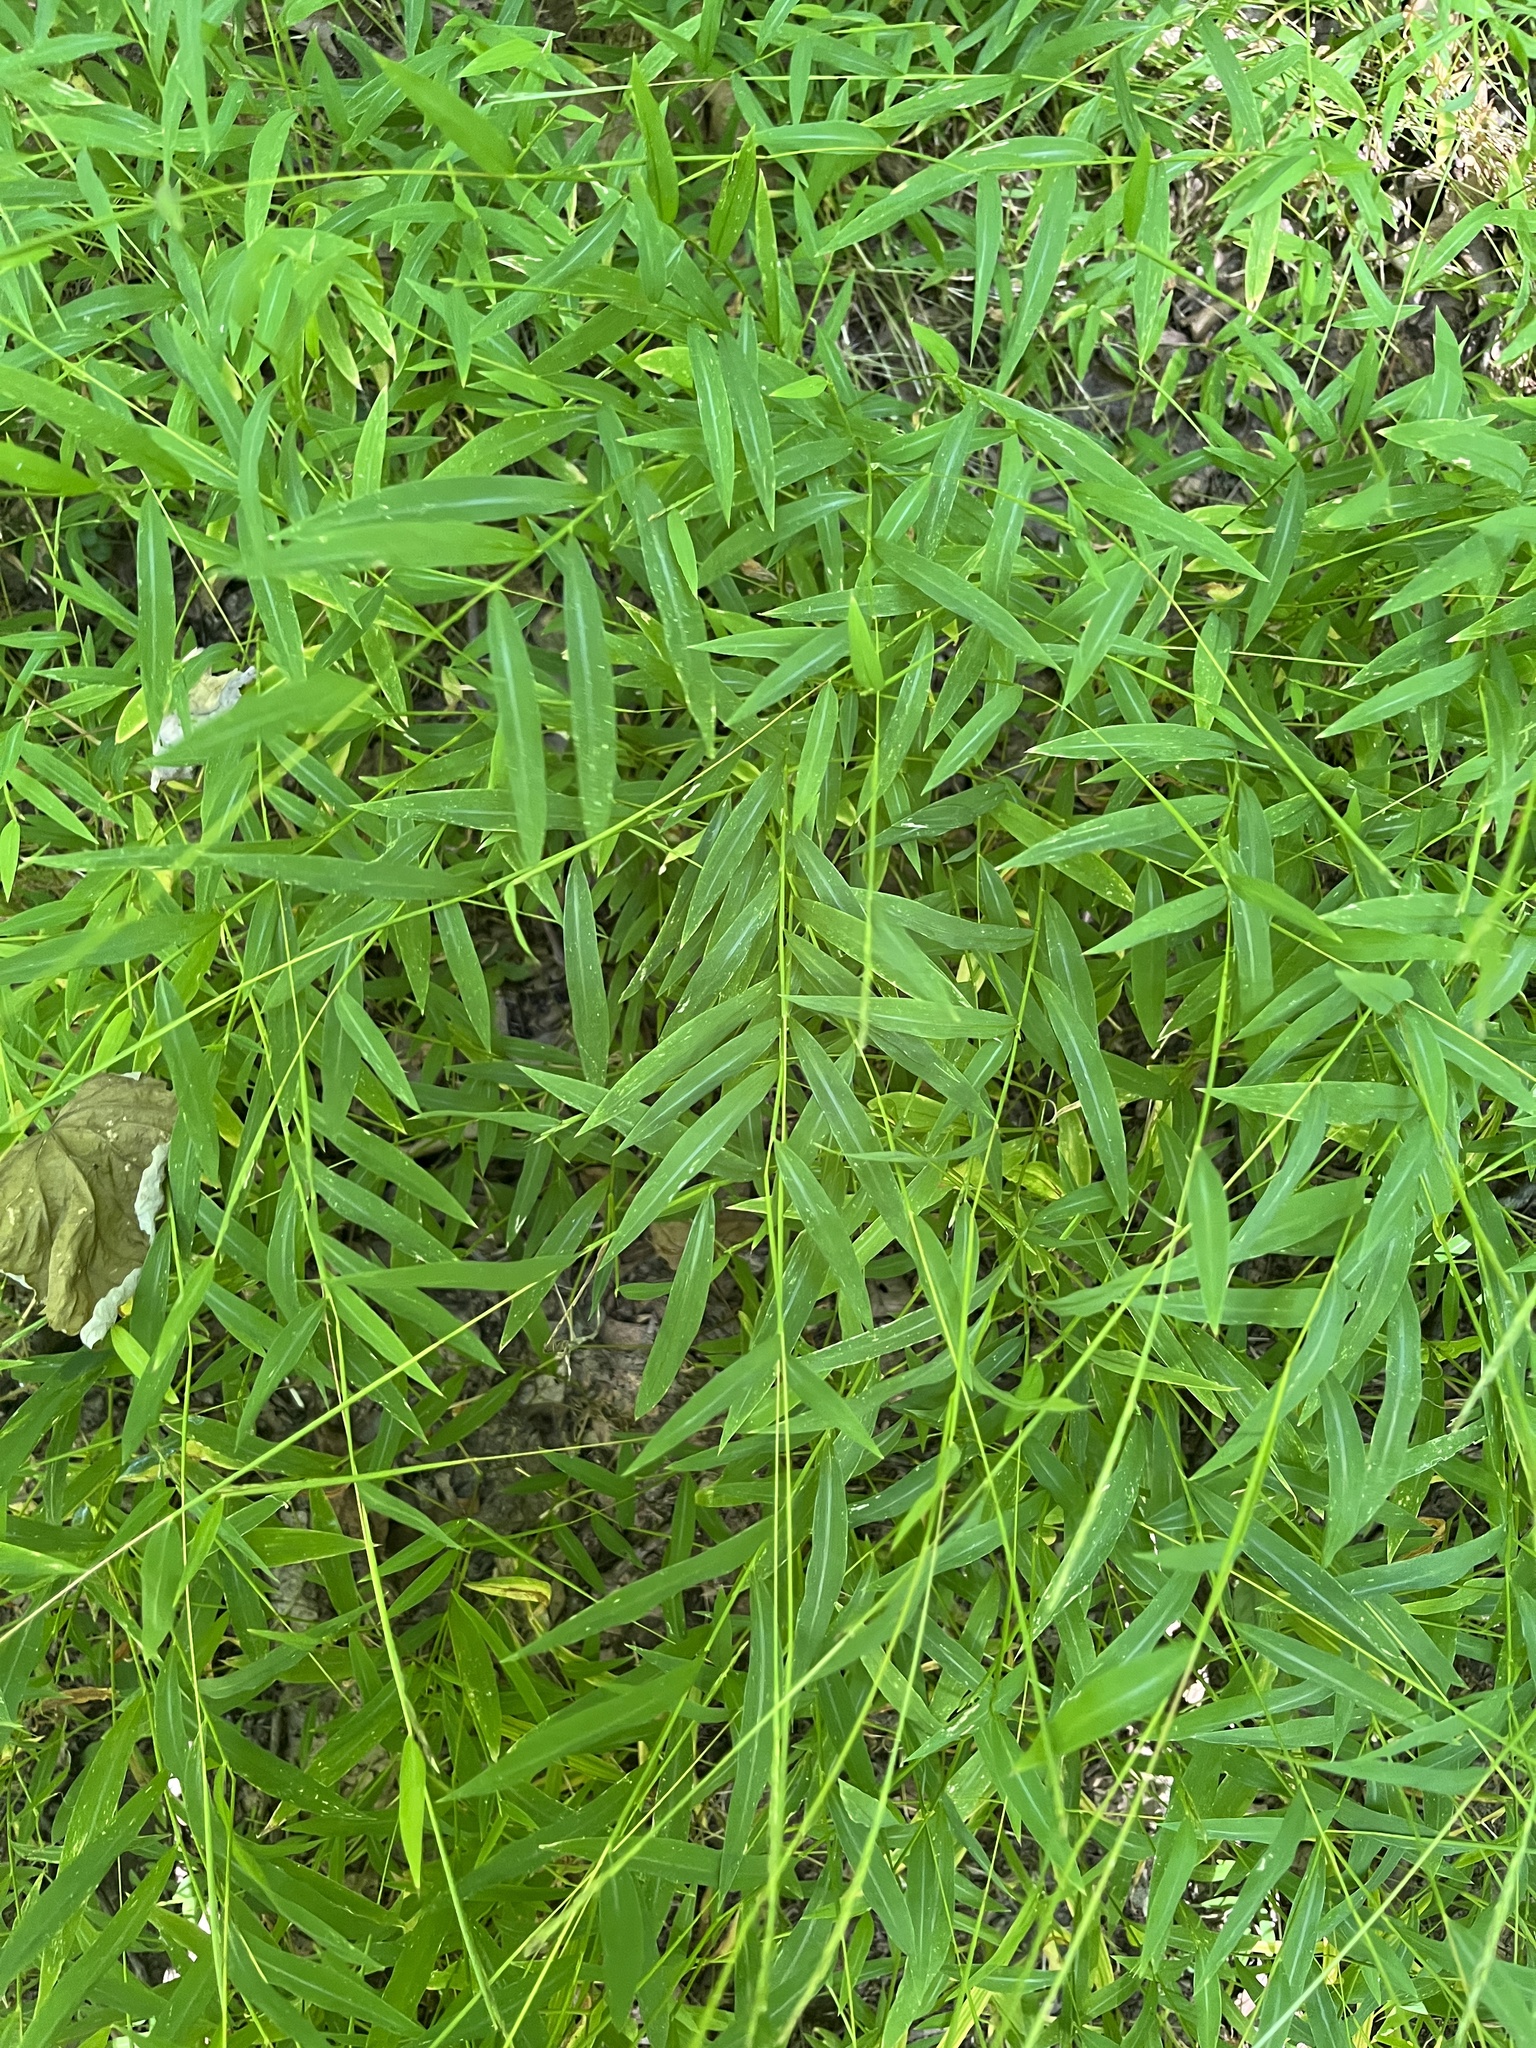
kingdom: Plantae
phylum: Tracheophyta
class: Liliopsida
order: Poales
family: Poaceae
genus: Microstegium
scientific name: Microstegium vimineum
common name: Japanese stiltgrass
